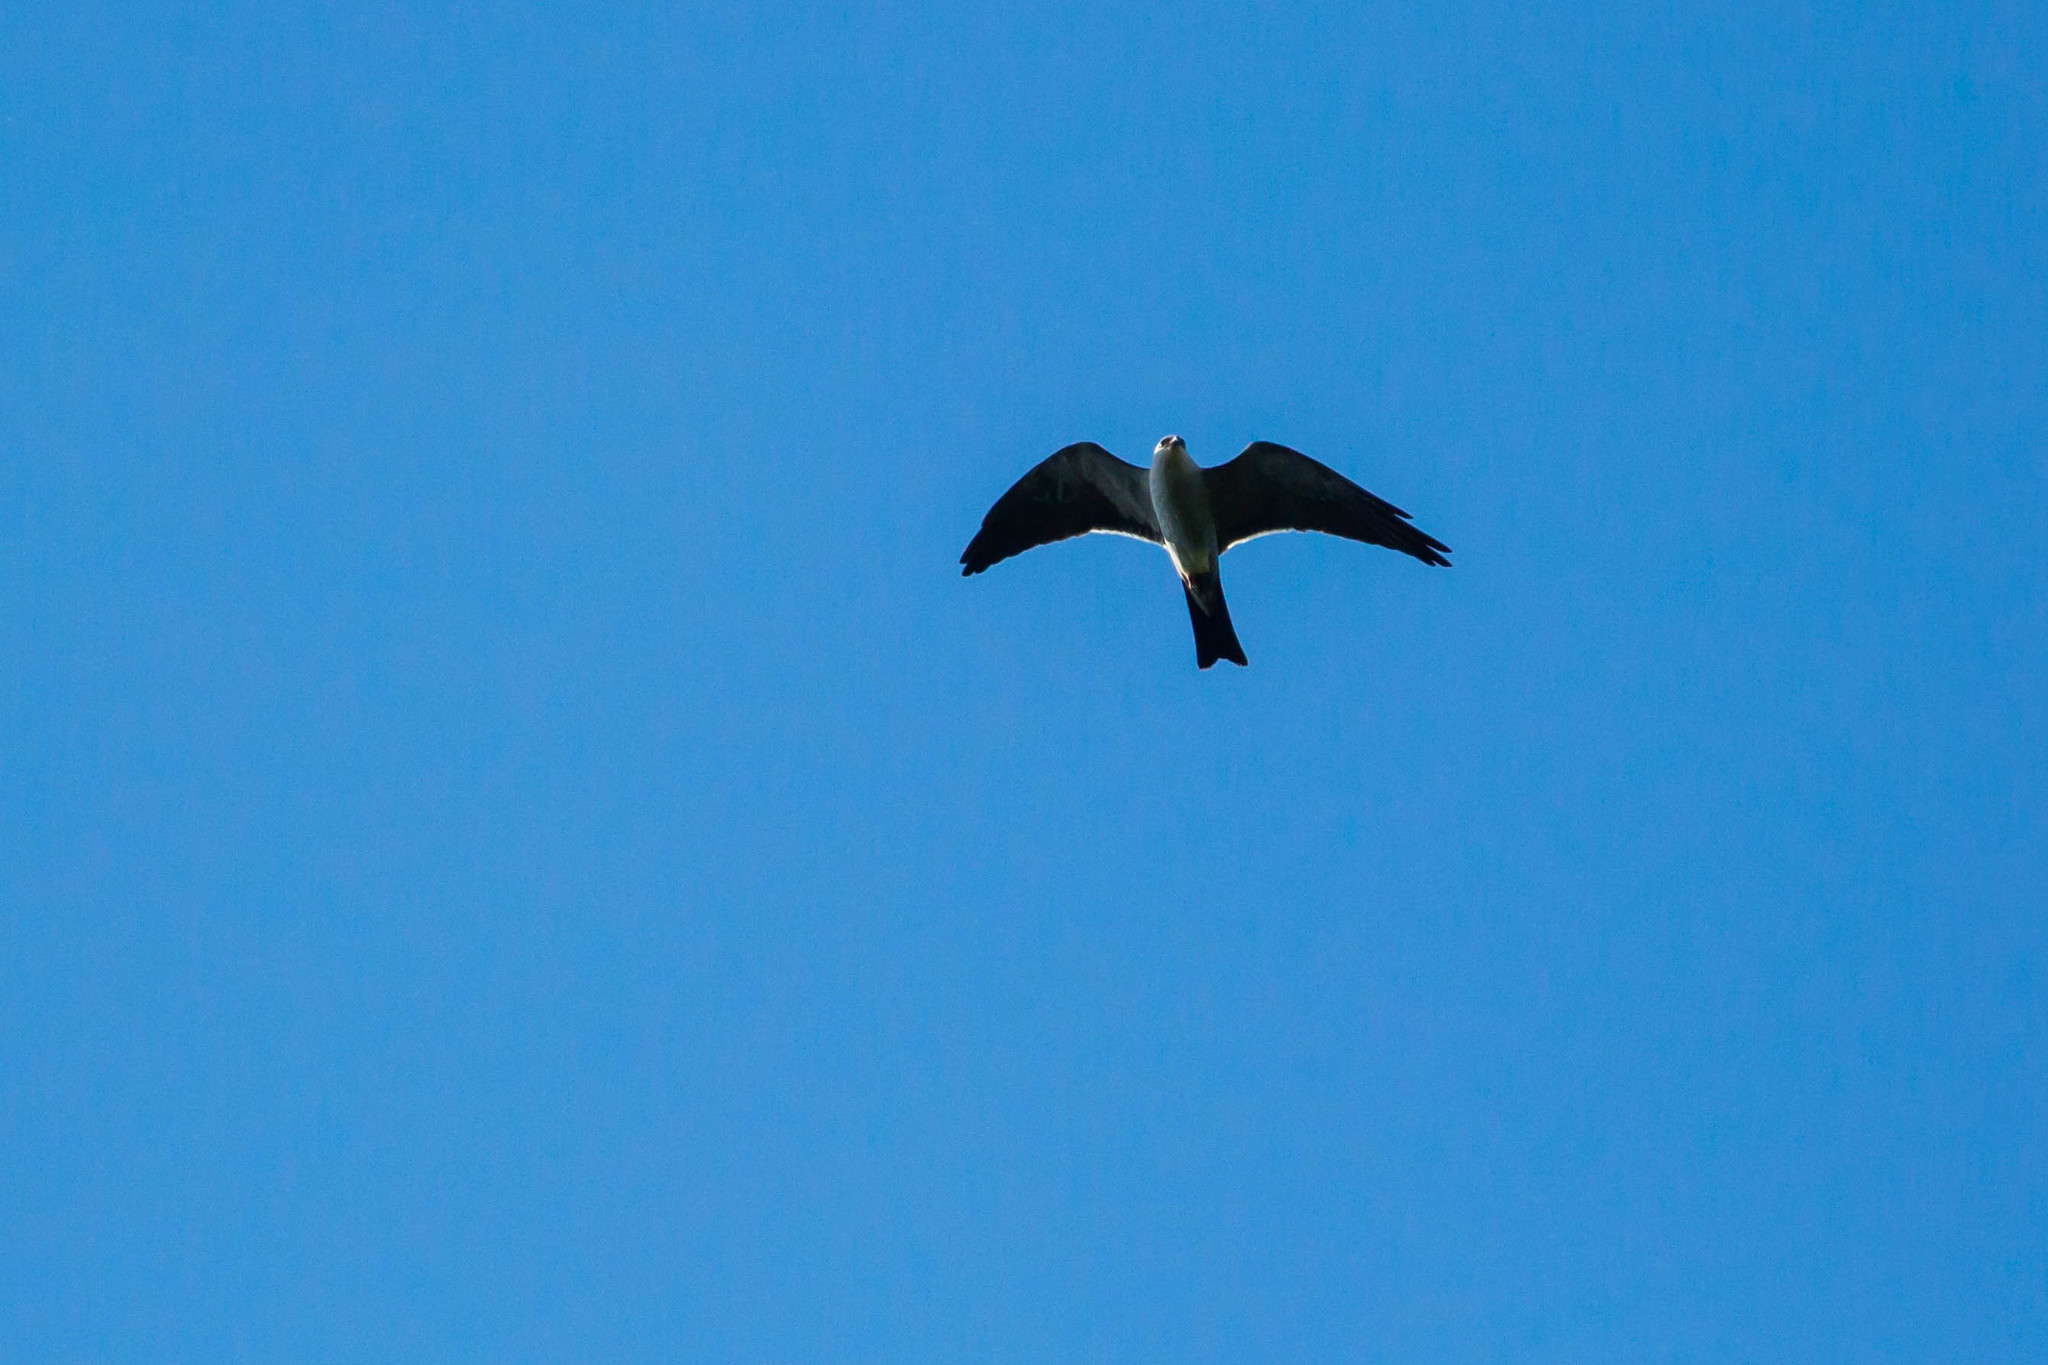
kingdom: Animalia
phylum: Chordata
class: Aves
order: Accipitriformes
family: Accipitridae
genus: Ictinia
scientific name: Ictinia mississippiensis
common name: Mississippi kite
